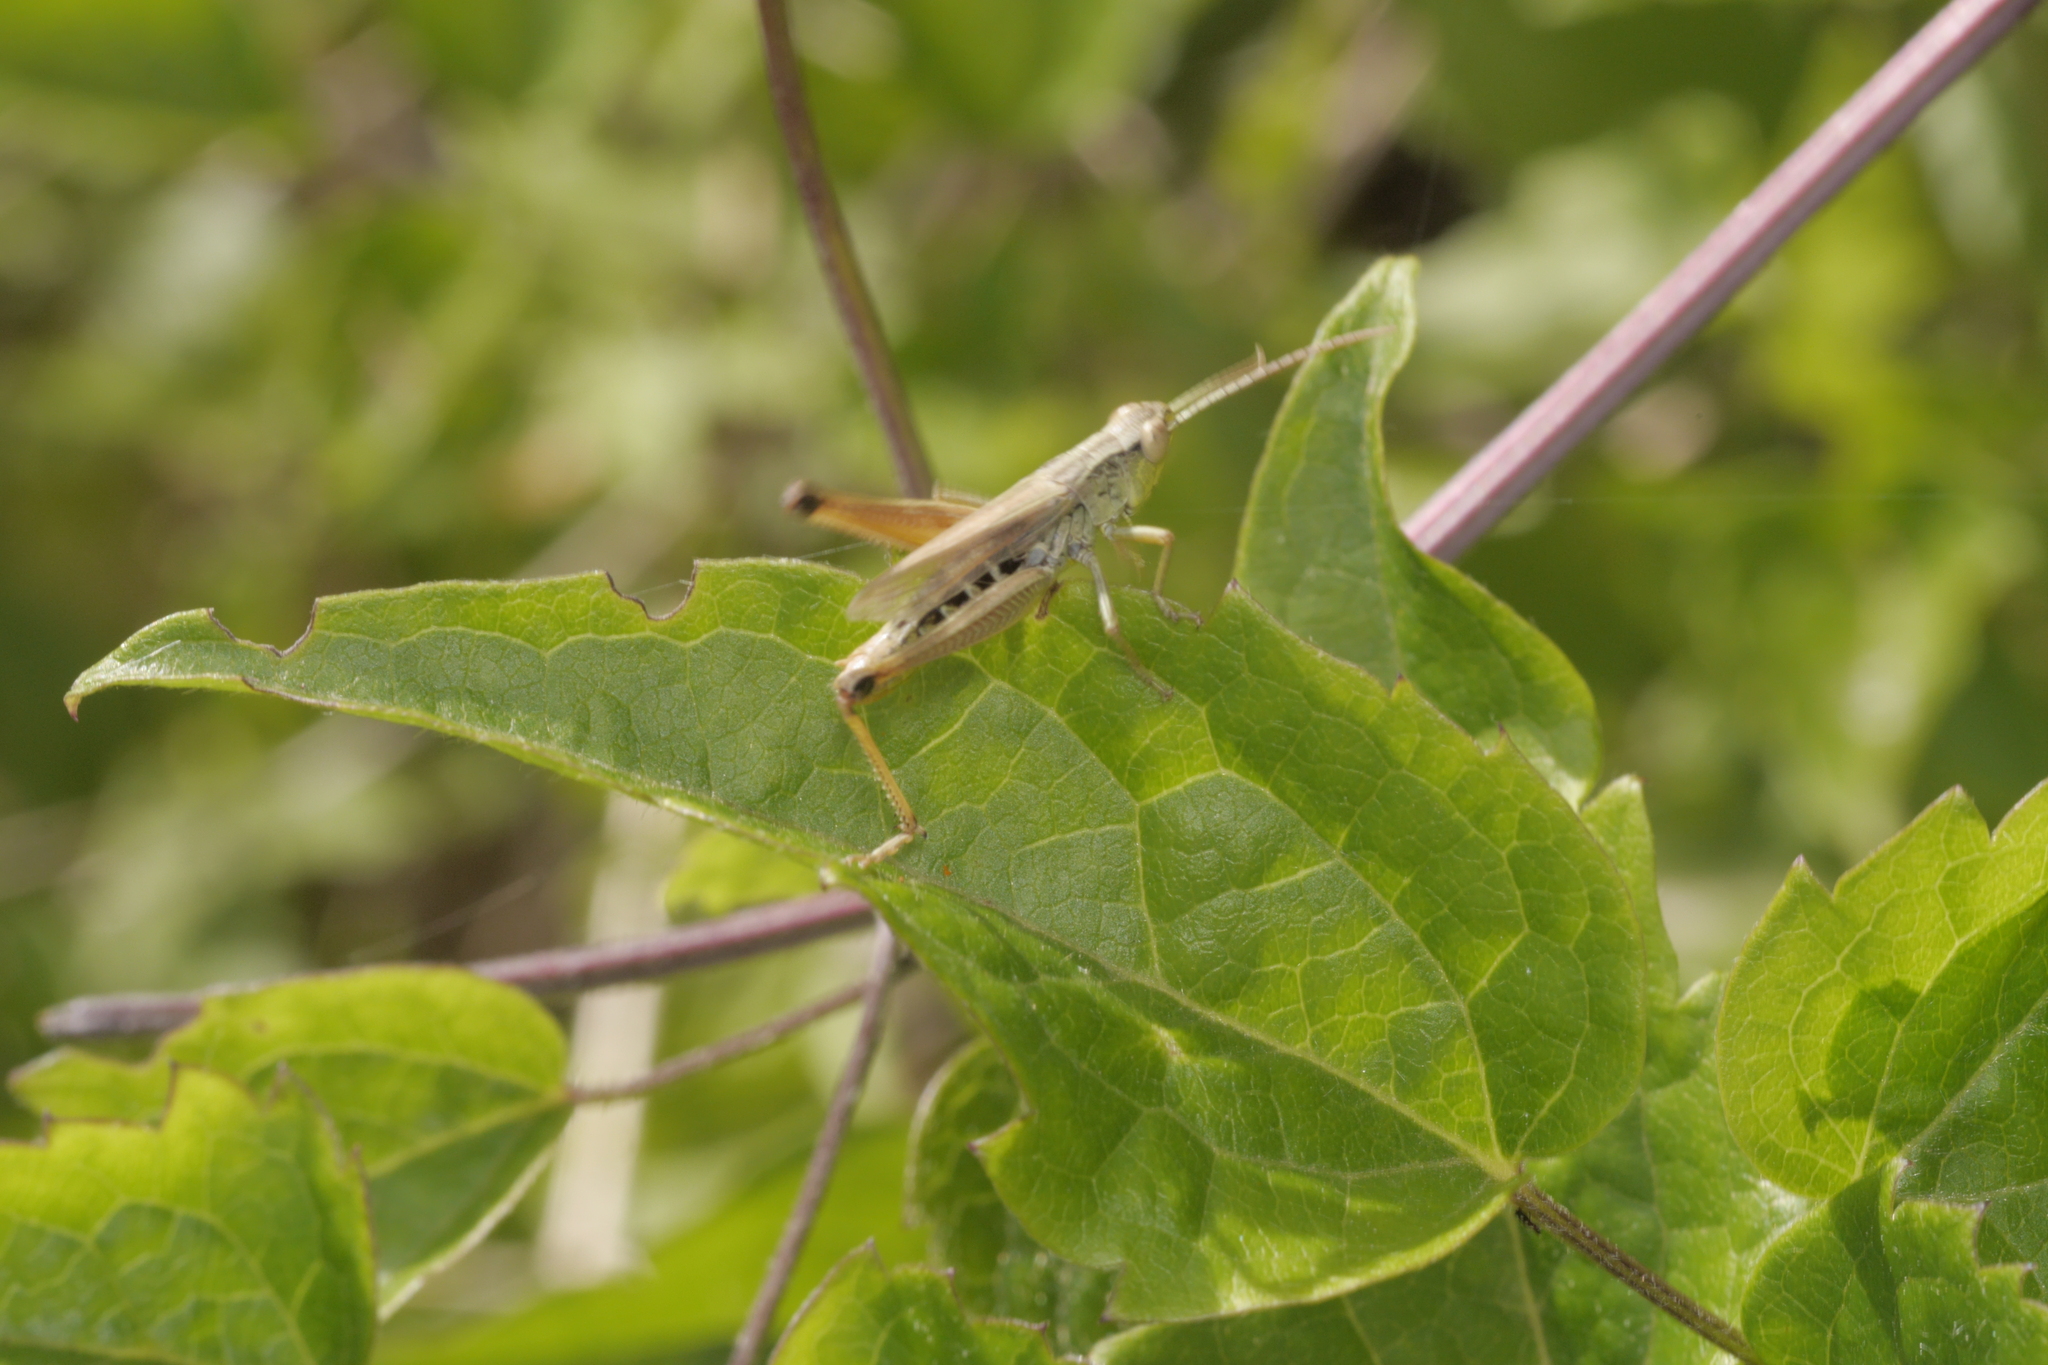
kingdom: Animalia
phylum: Arthropoda
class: Insecta
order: Orthoptera
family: Acrididae
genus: Pseudochorthippus
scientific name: Pseudochorthippus parallelus
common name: Meadow grasshopper
